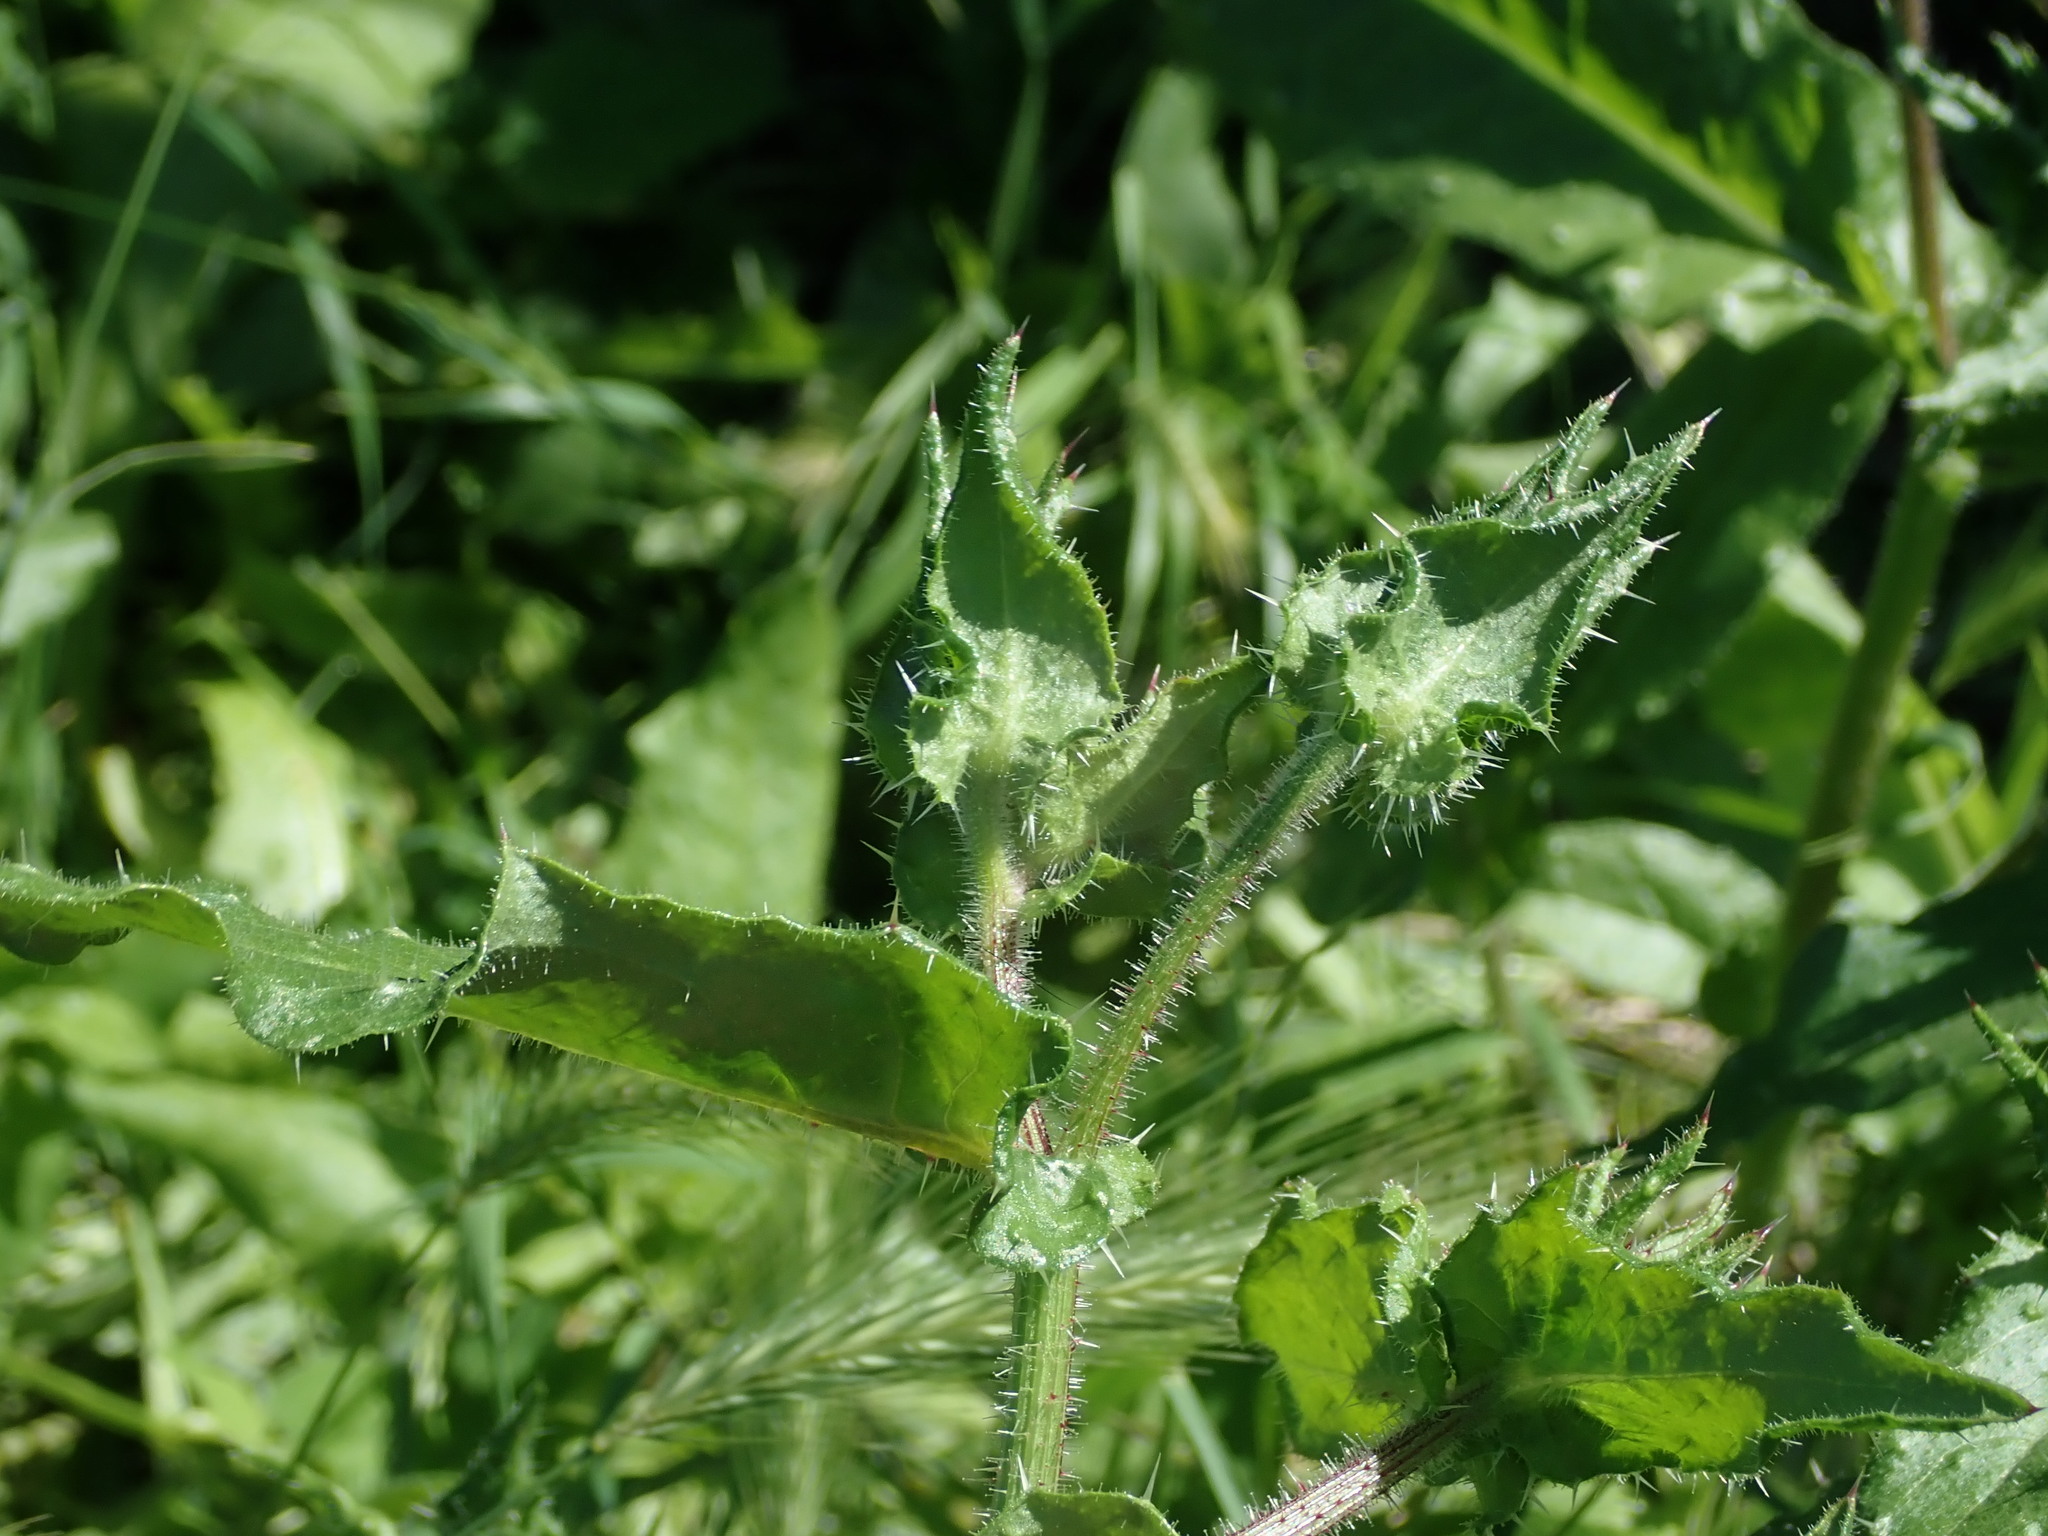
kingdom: Plantae
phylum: Tracheophyta
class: Magnoliopsida
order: Asterales
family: Asteraceae
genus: Helminthotheca
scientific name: Helminthotheca echioides
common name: Ox-tongue
